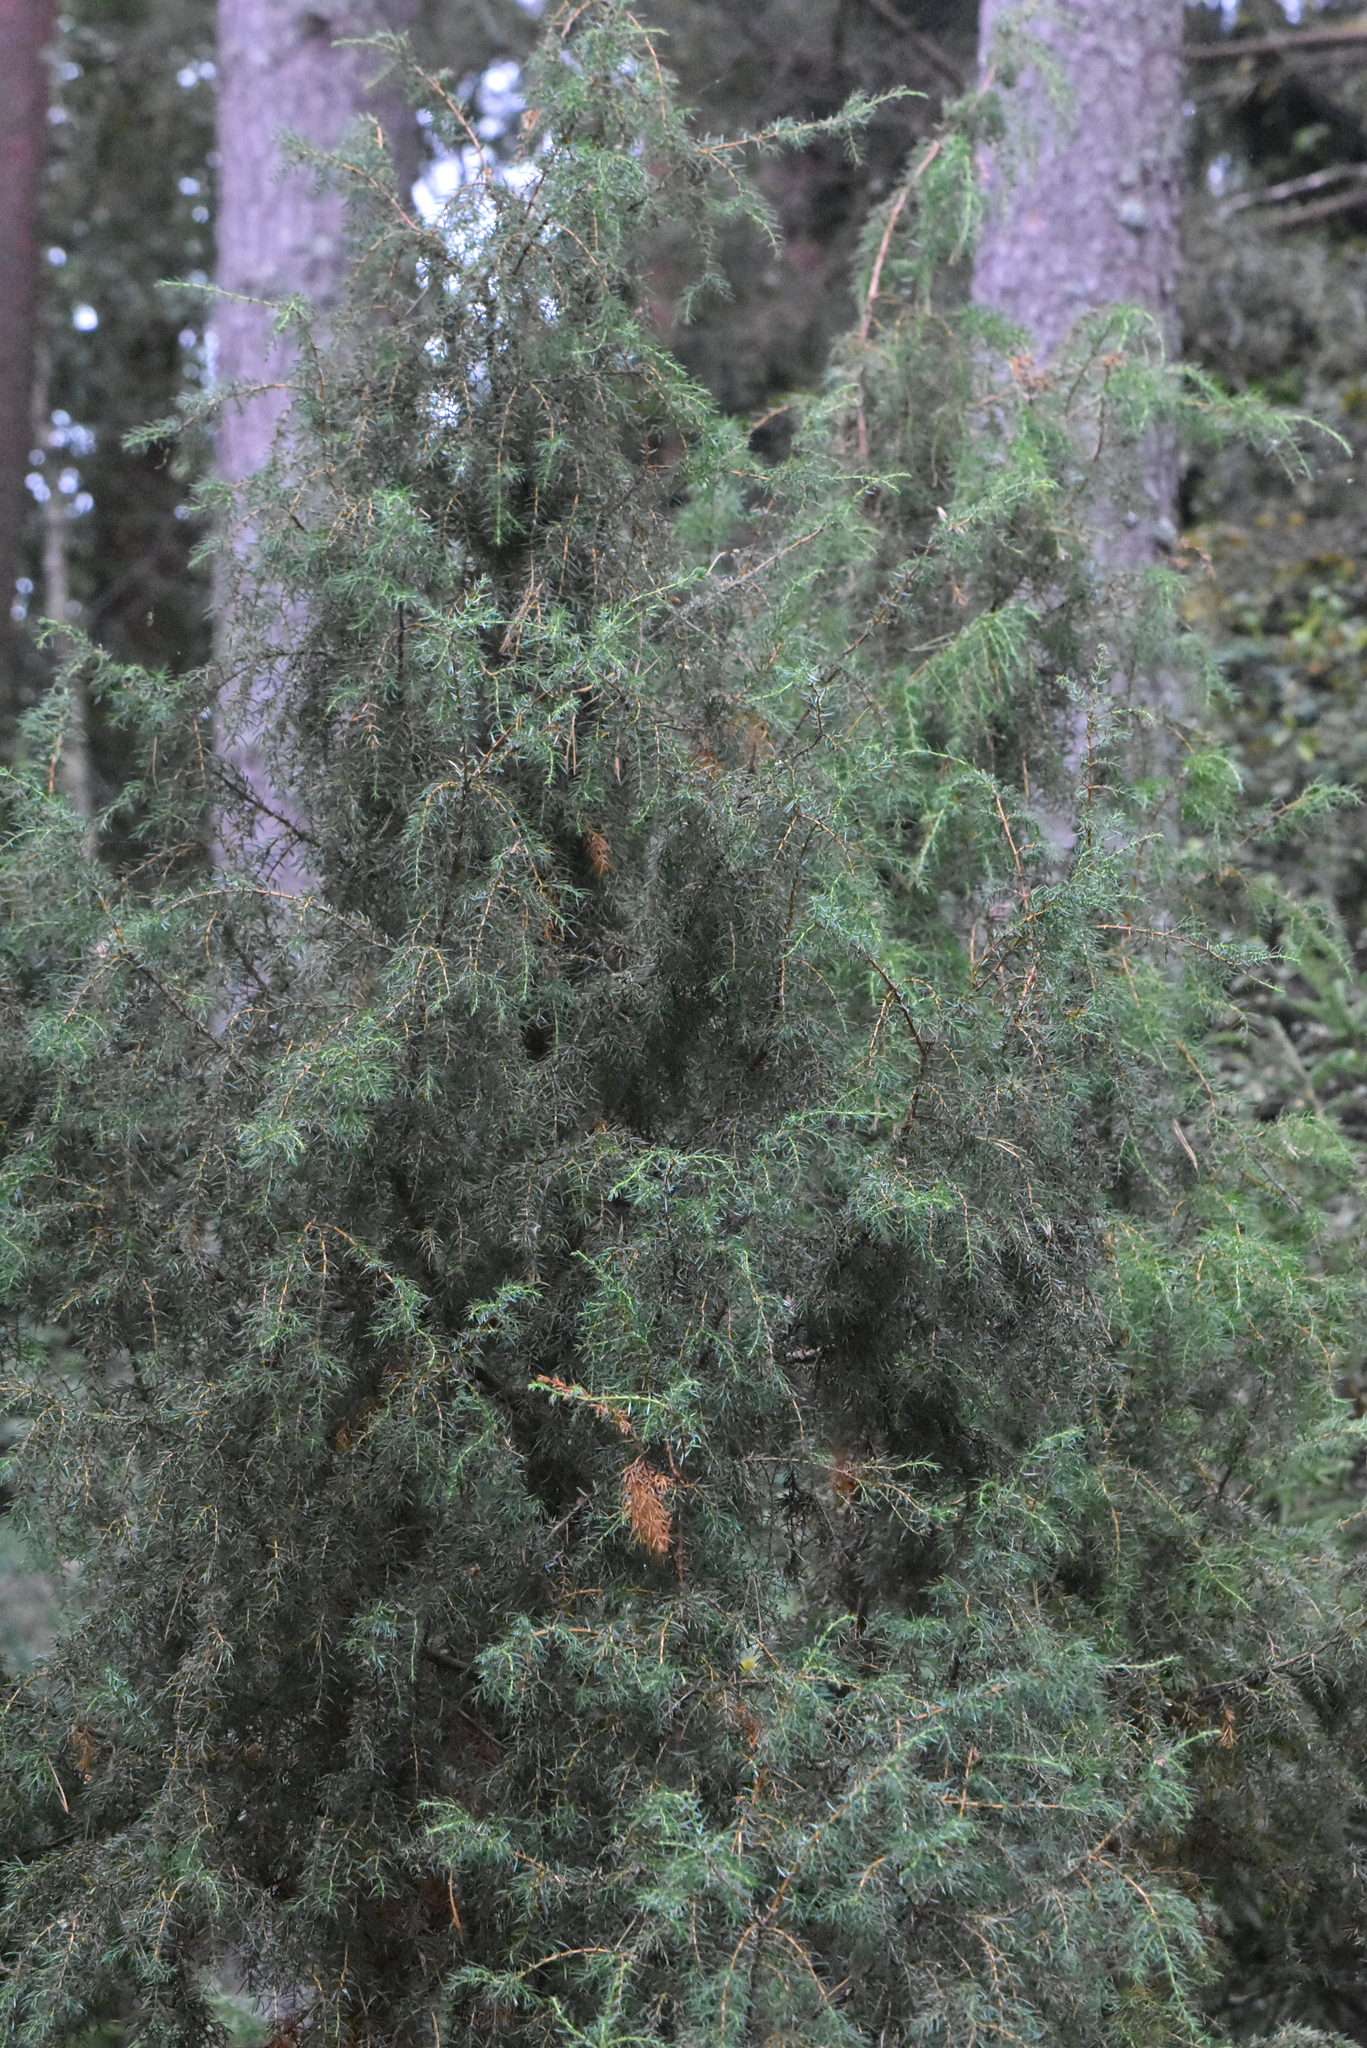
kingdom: Plantae
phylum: Tracheophyta
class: Pinopsida
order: Pinales
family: Cupressaceae
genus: Juniperus
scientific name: Juniperus communis
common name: Common juniper
